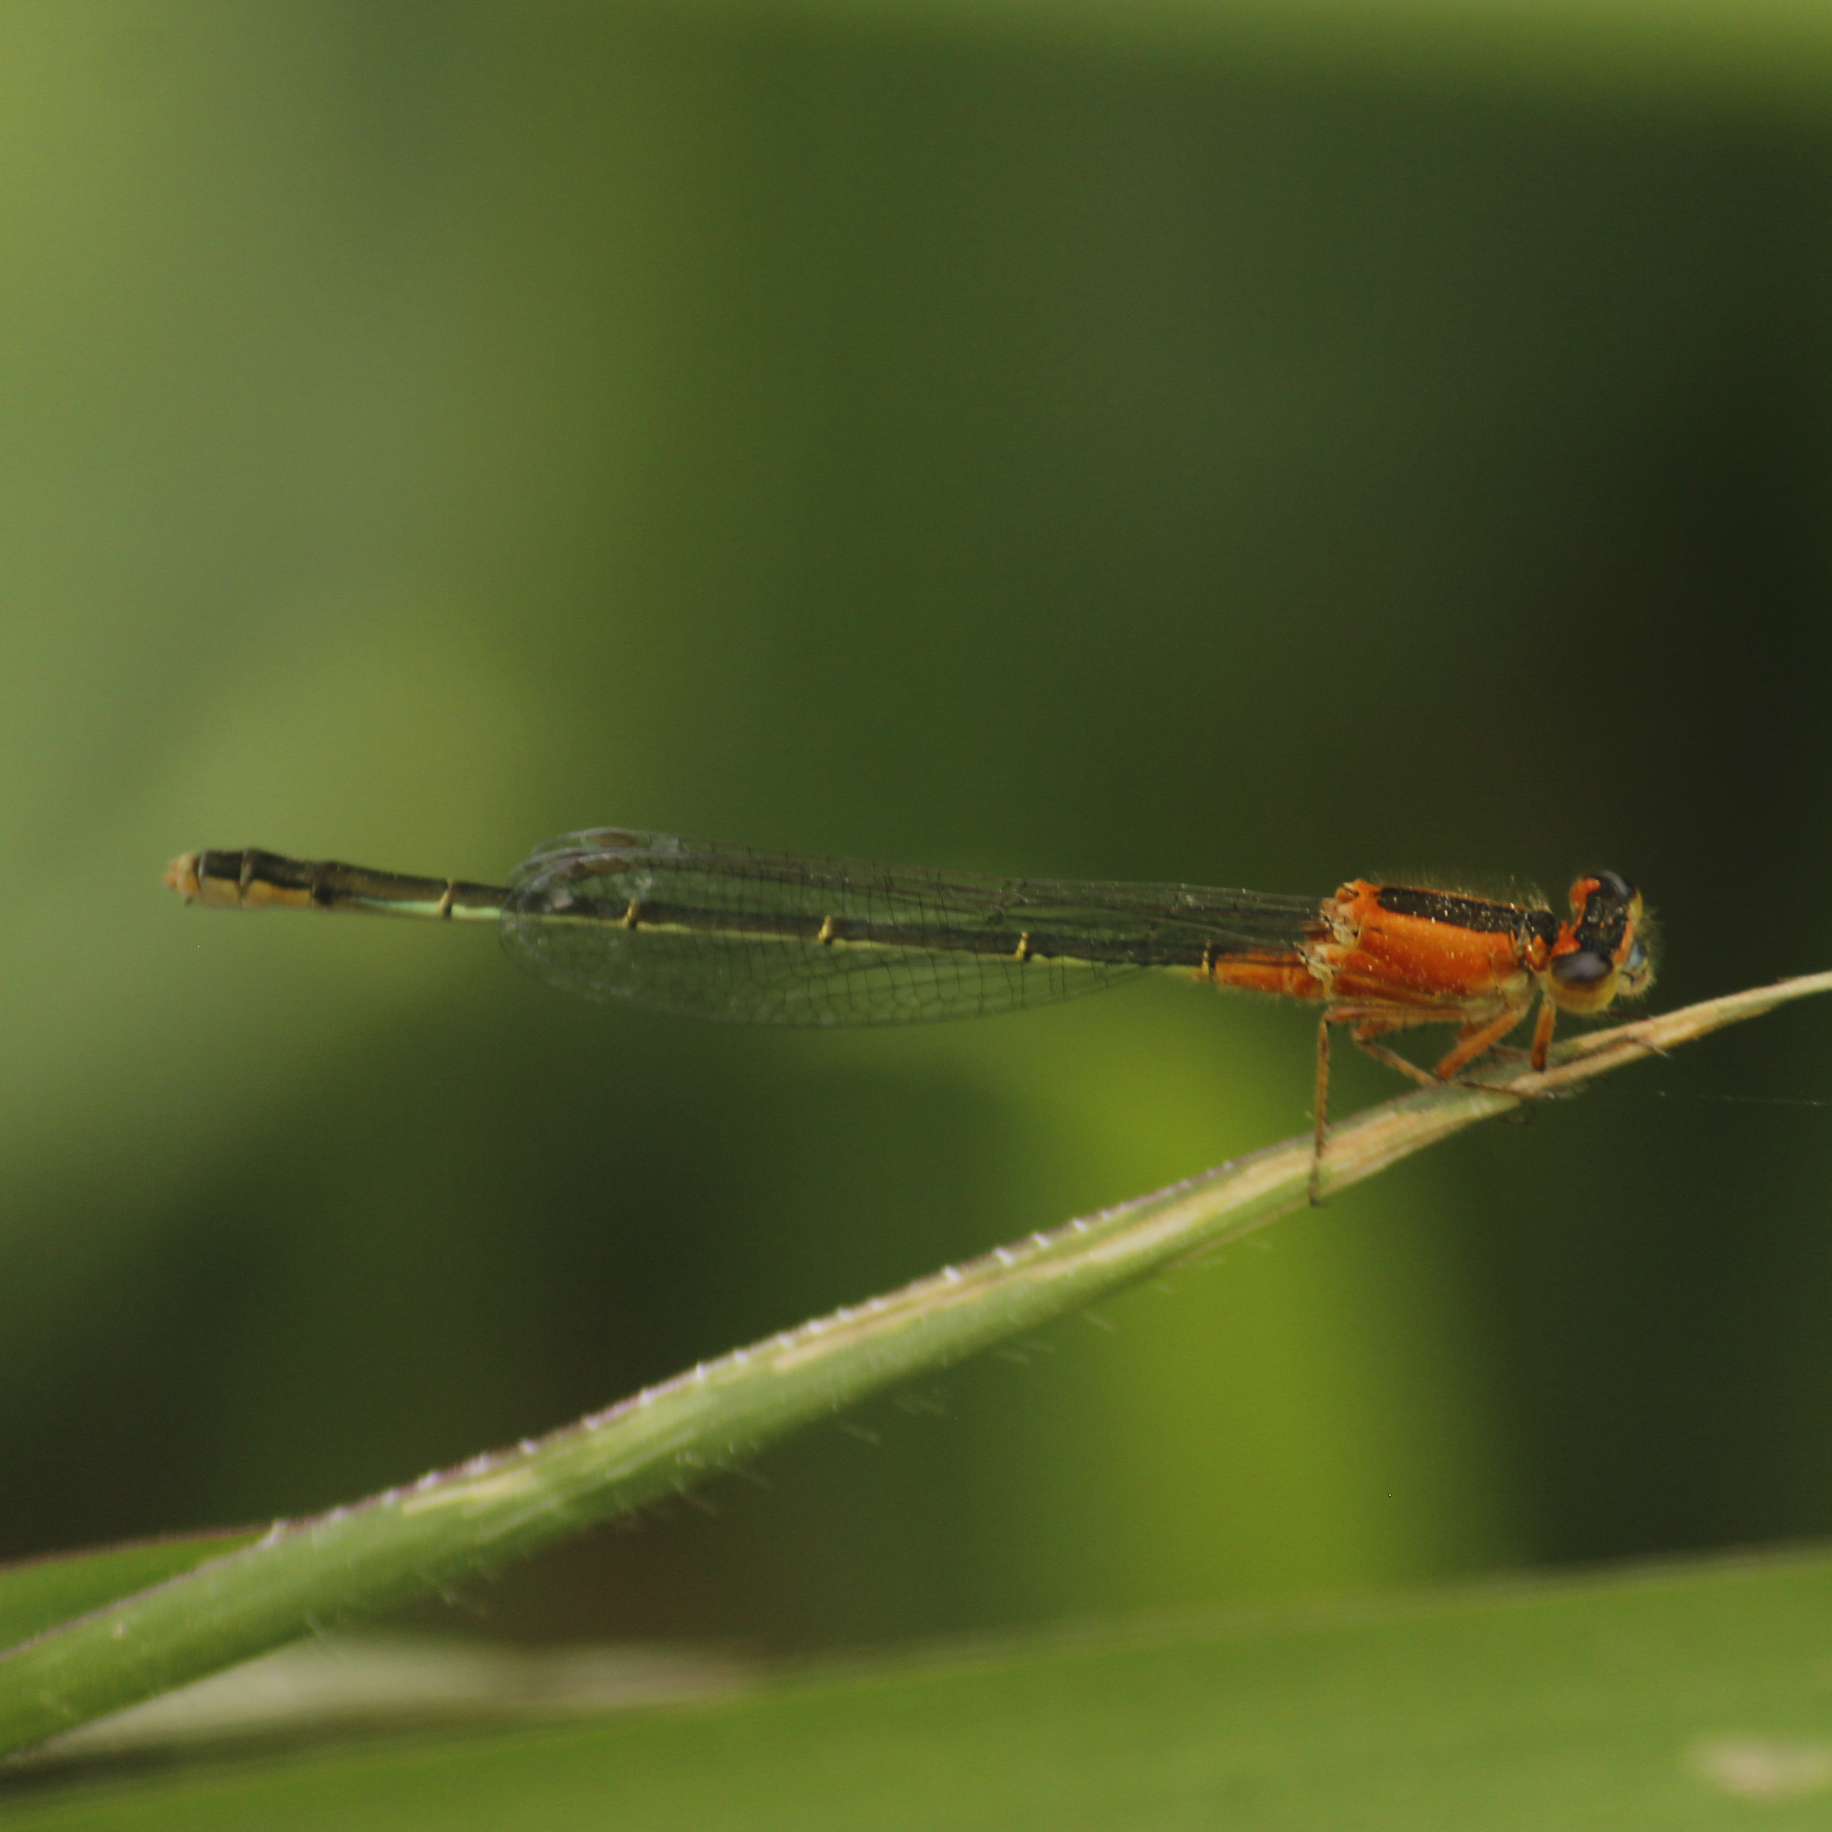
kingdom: Animalia
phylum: Arthropoda
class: Insecta
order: Odonata
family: Coenagrionidae
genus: Ischnura
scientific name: Ischnura ramburii
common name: Rambur's forktail
